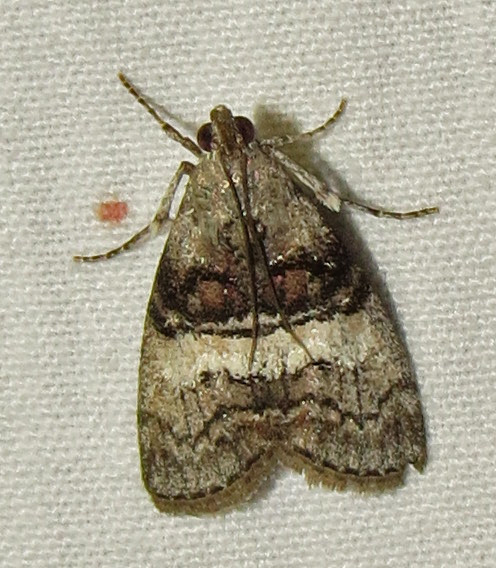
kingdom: Animalia
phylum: Arthropoda
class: Insecta
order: Lepidoptera
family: Pyralidae
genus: Pococera
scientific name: Pococera asperatella
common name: Maple webworm moth
